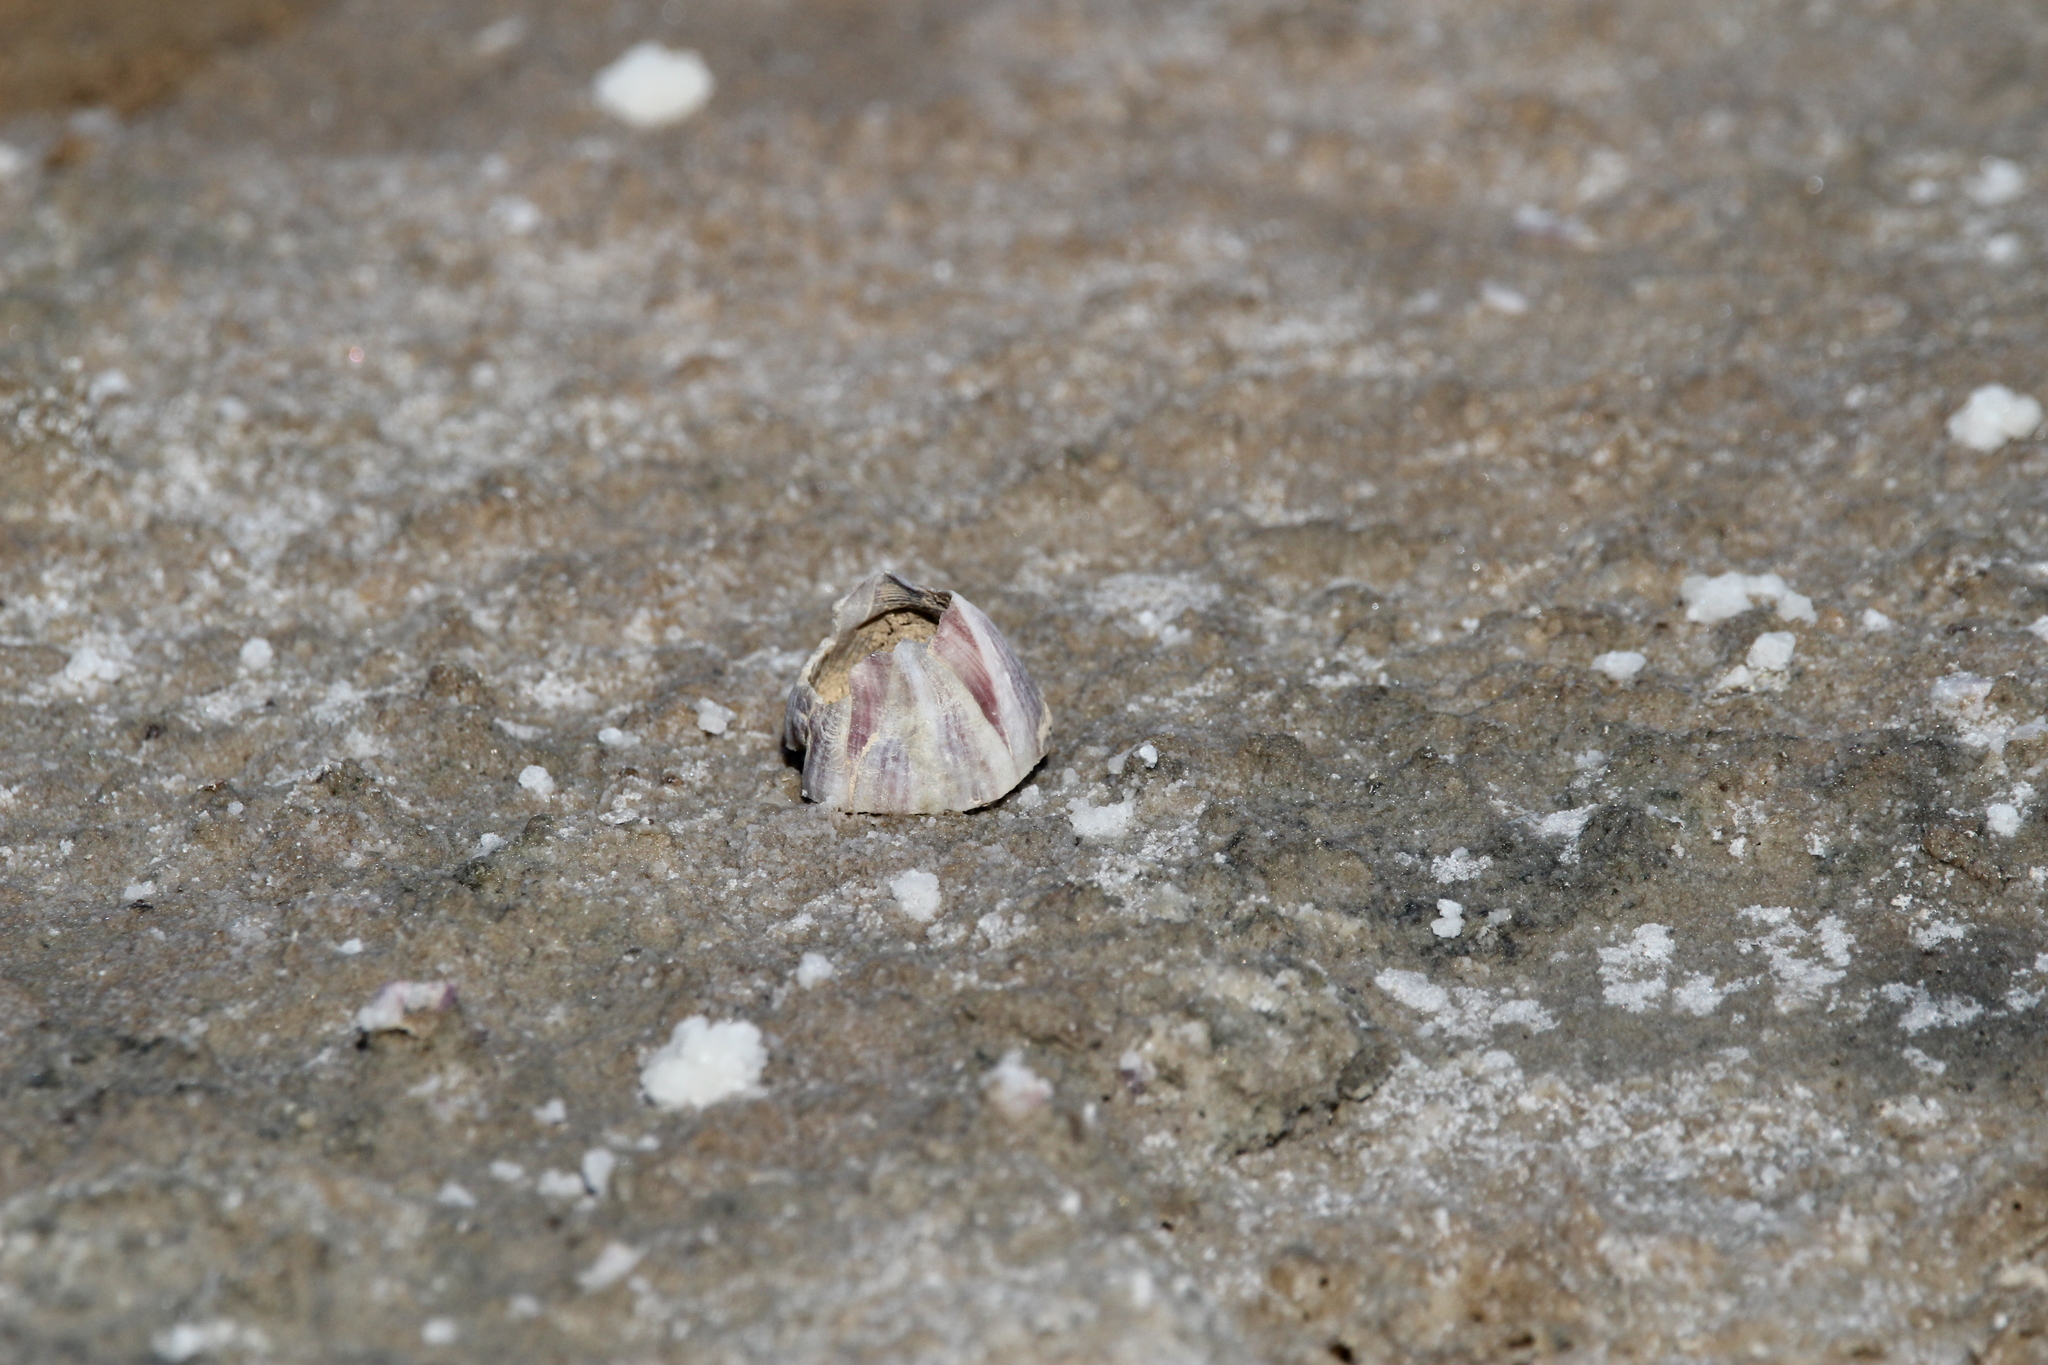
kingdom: Animalia
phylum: Arthropoda
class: Maxillopoda
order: Sessilia
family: Balanidae
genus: Amphibalanus
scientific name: Amphibalanus amphitrite
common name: Striped acorn barnacle
